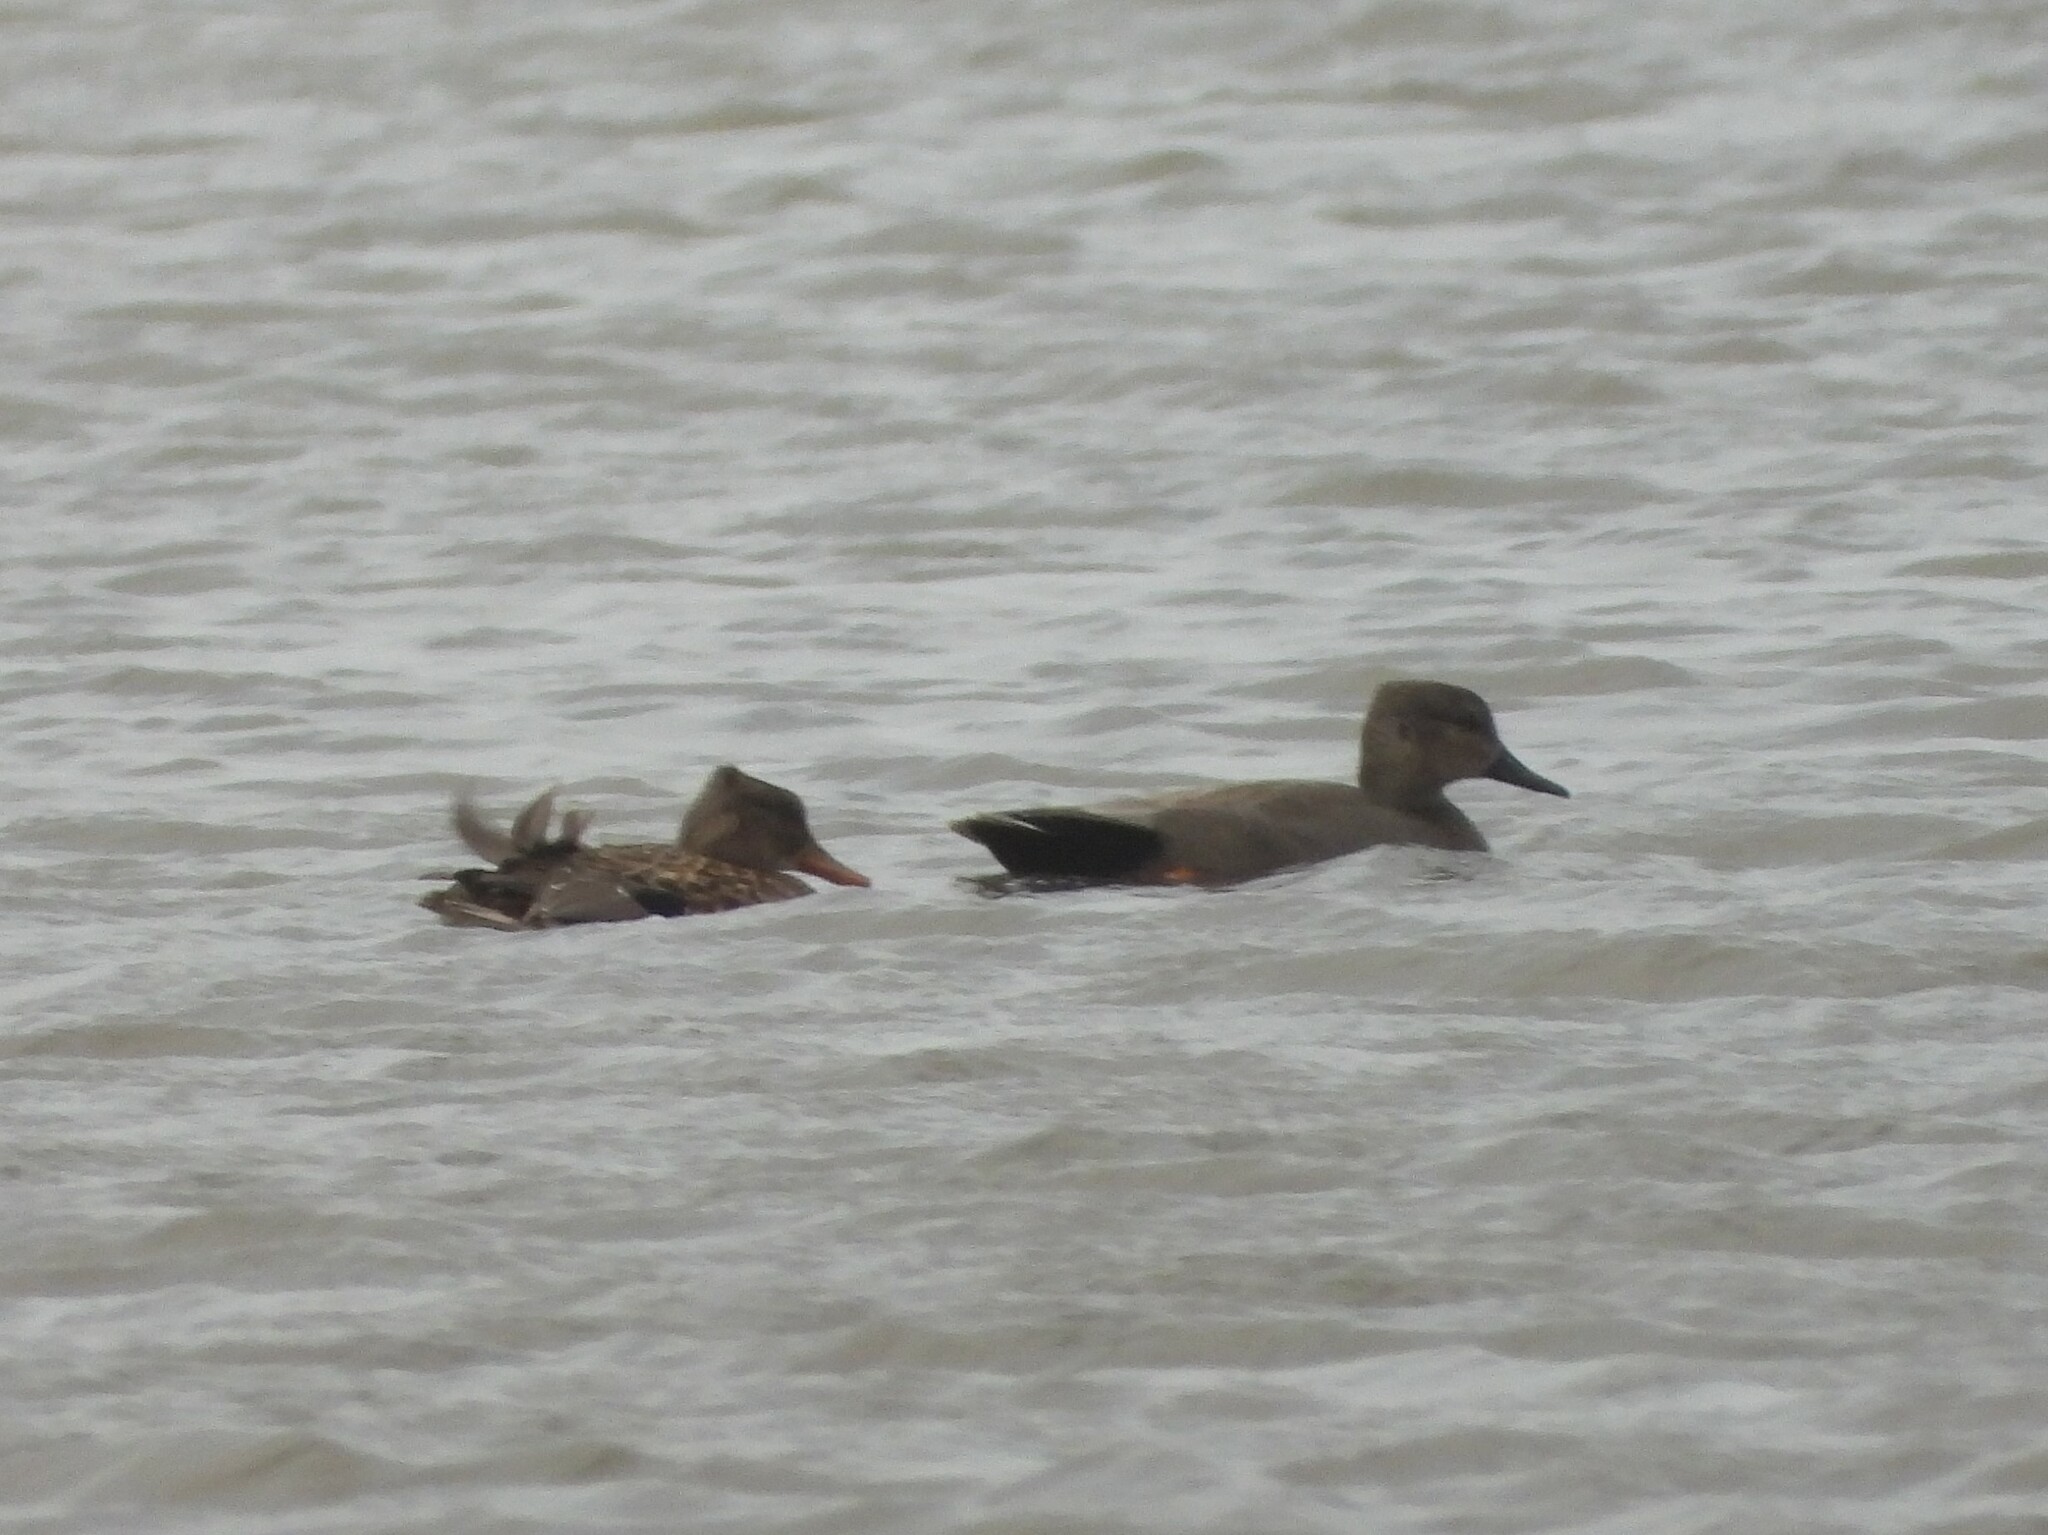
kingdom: Animalia
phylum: Chordata
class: Aves
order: Anseriformes
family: Anatidae
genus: Mareca
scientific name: Mareca strepera
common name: Gadwall
